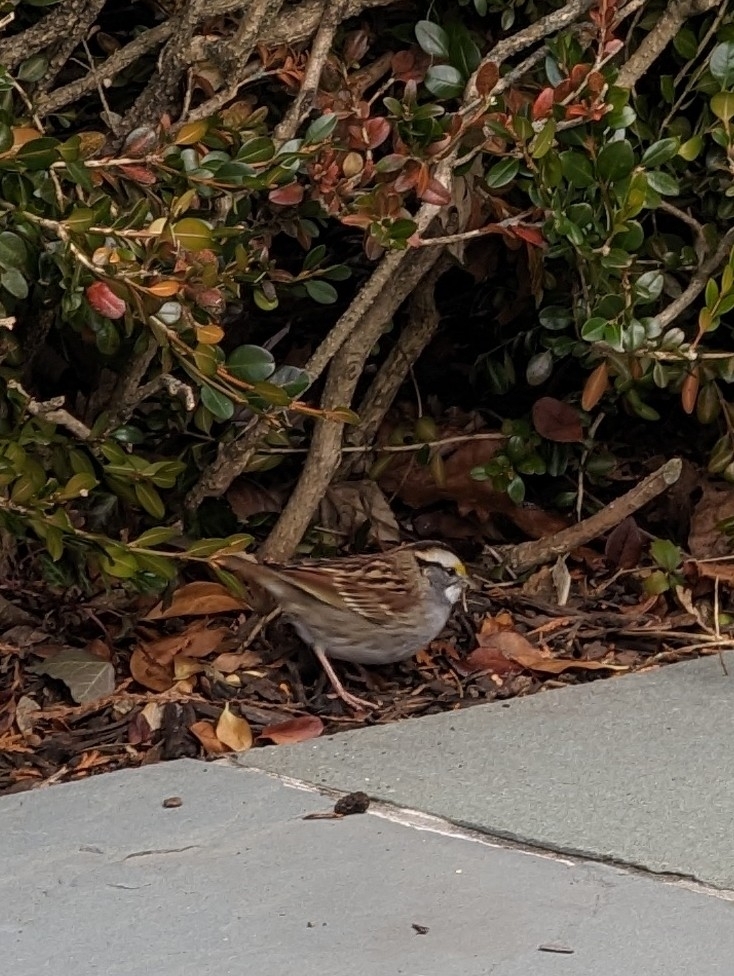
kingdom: Animalia
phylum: Chordata
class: Aves
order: Passeriformes
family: Passerellidae
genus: Zonotrichia
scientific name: Zonotrichia albicollis
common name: White-throated sparrow
